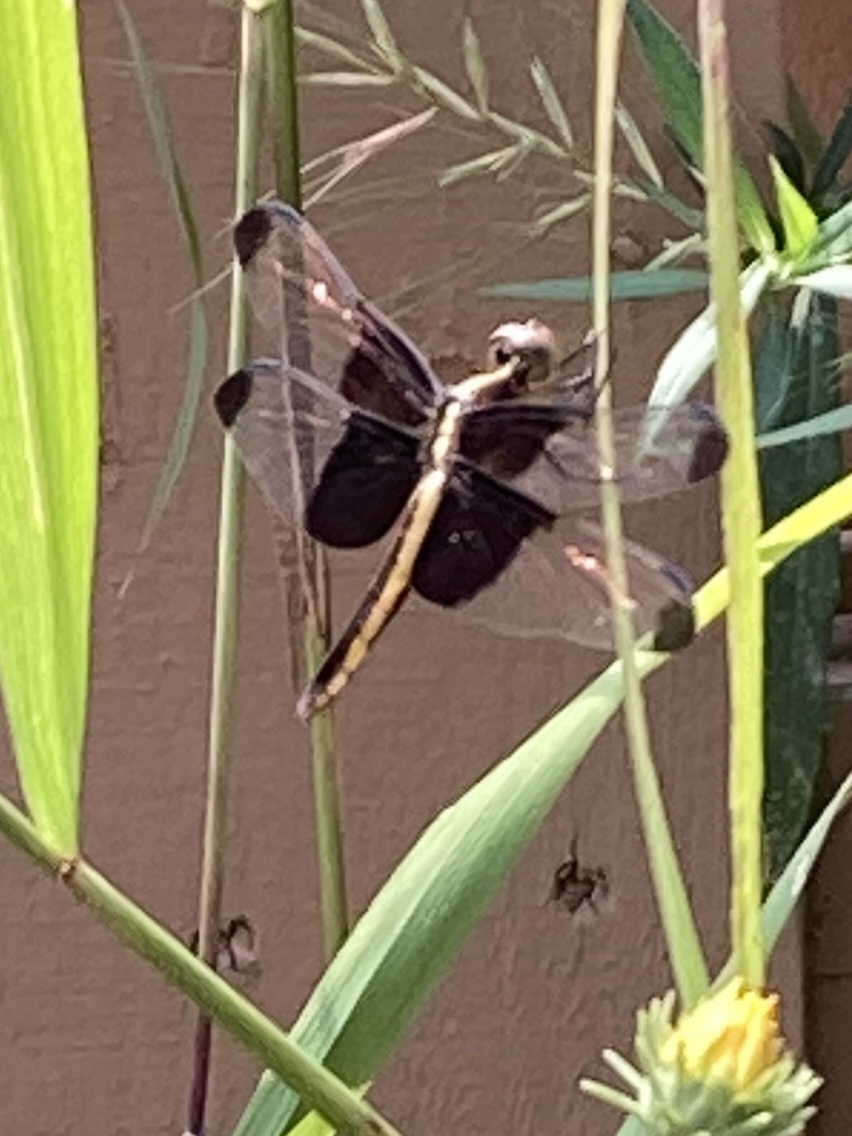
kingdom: Animalia
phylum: Arthropoda
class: Insecta
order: Odonata
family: Libellulidae
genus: Libellula
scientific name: Libellula luctuosa
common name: Widow skimmer
